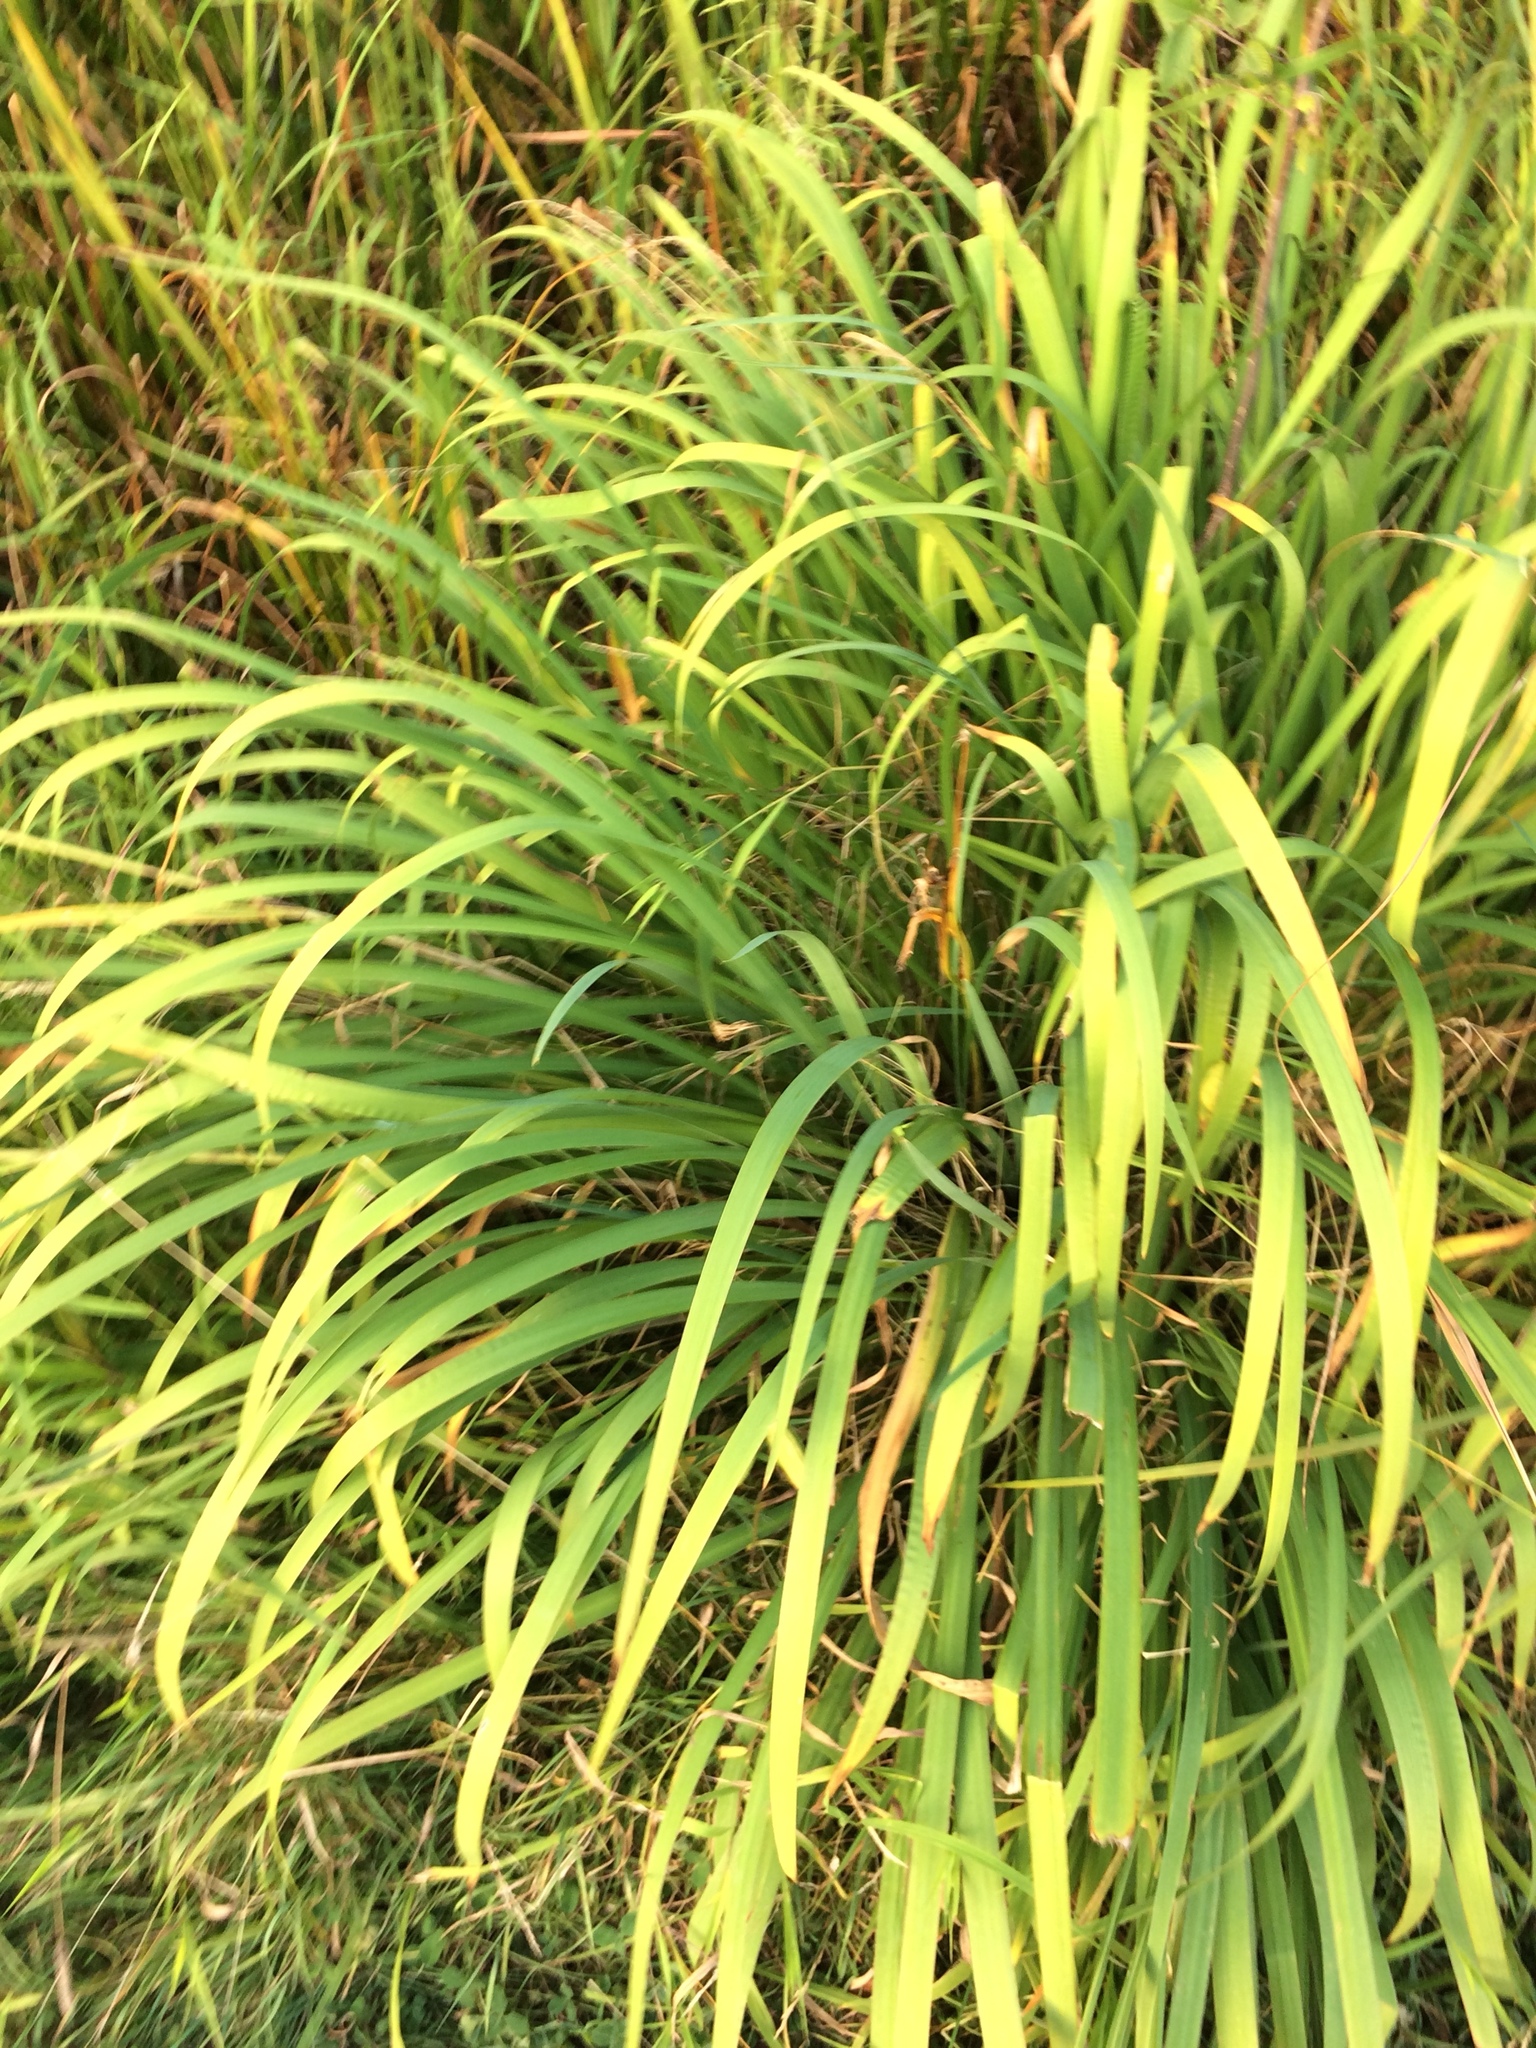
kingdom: Plantae
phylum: Tracheophyta
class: Liliopsida
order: Asparagales
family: Iridaceae
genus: Iris
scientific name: Iris versicolor
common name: Purple iris
